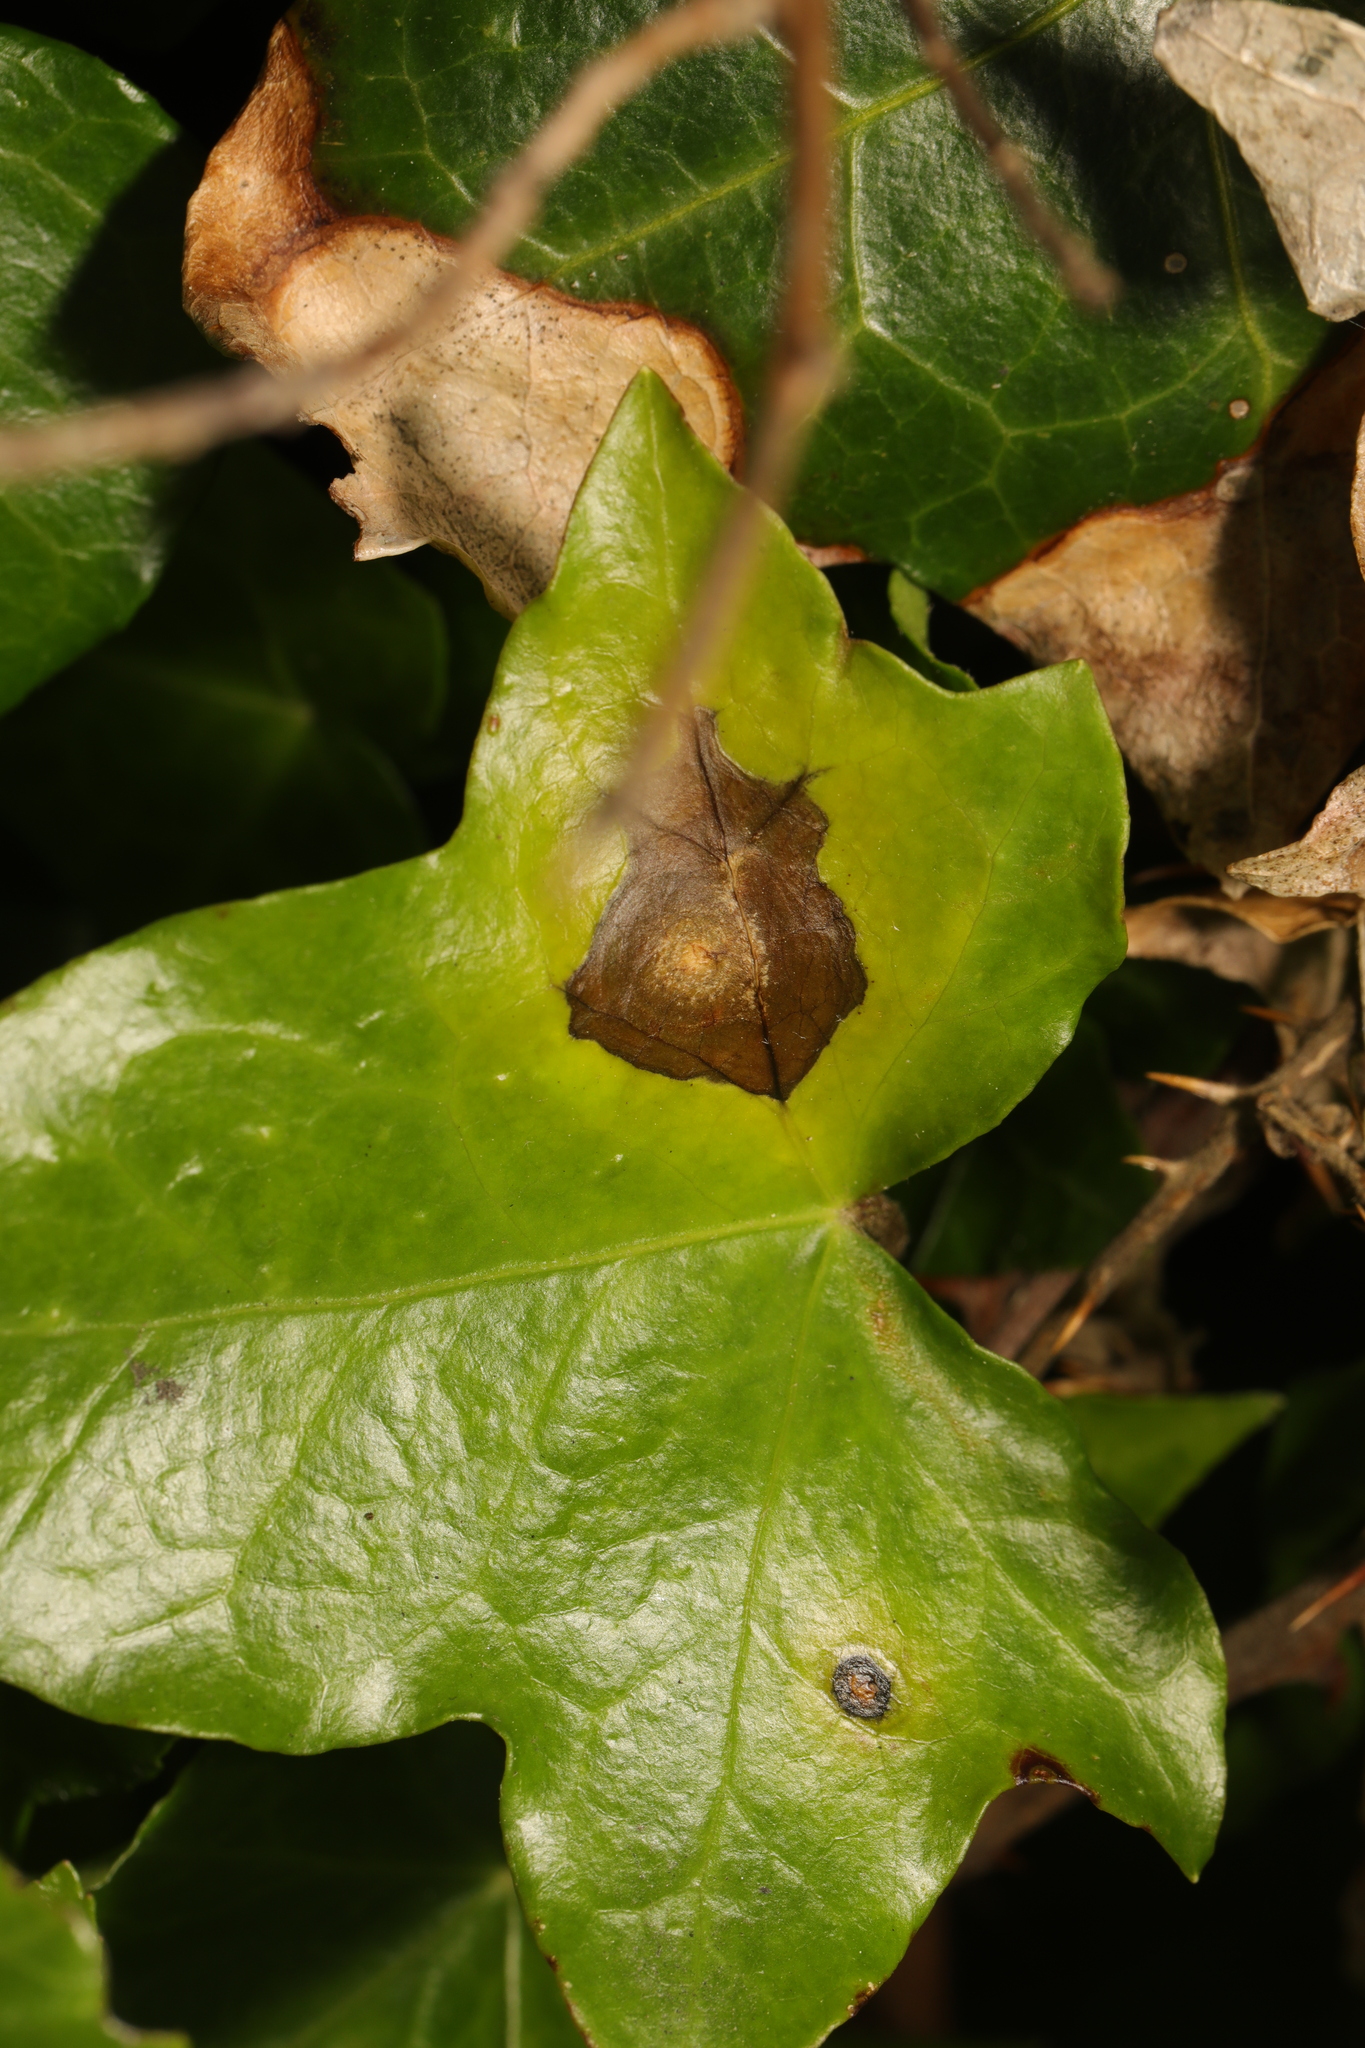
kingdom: Fungi
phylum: Ascomycota
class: Dothideomycetes
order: Pleosporales
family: Didymellaceae
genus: Boeremia
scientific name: Boeremia hedericola
